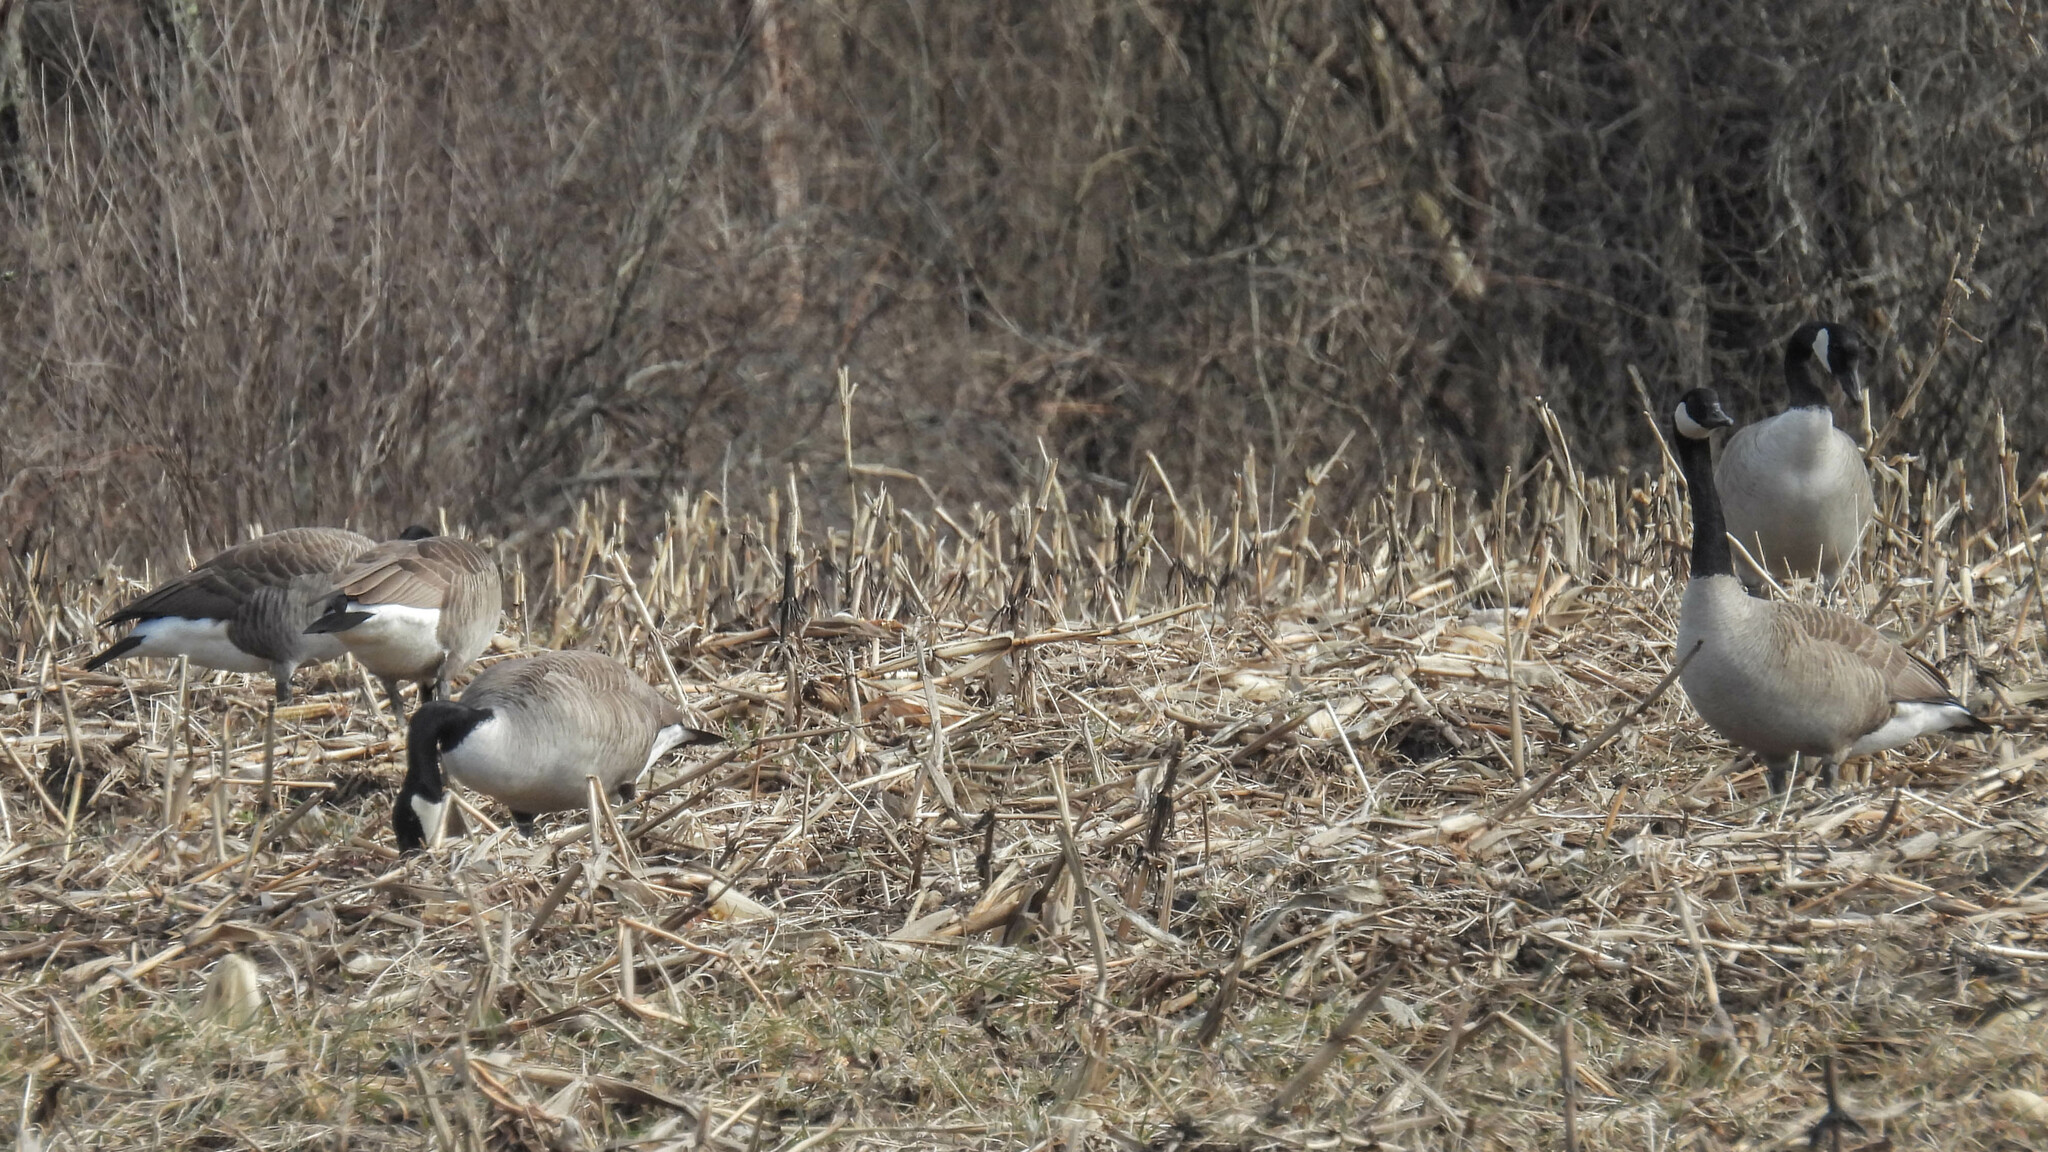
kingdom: Animalia
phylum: Chordata
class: Aves
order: Anseriformes
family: Anatidae
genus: Branta
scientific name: Branta canadensis
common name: Canada goose
